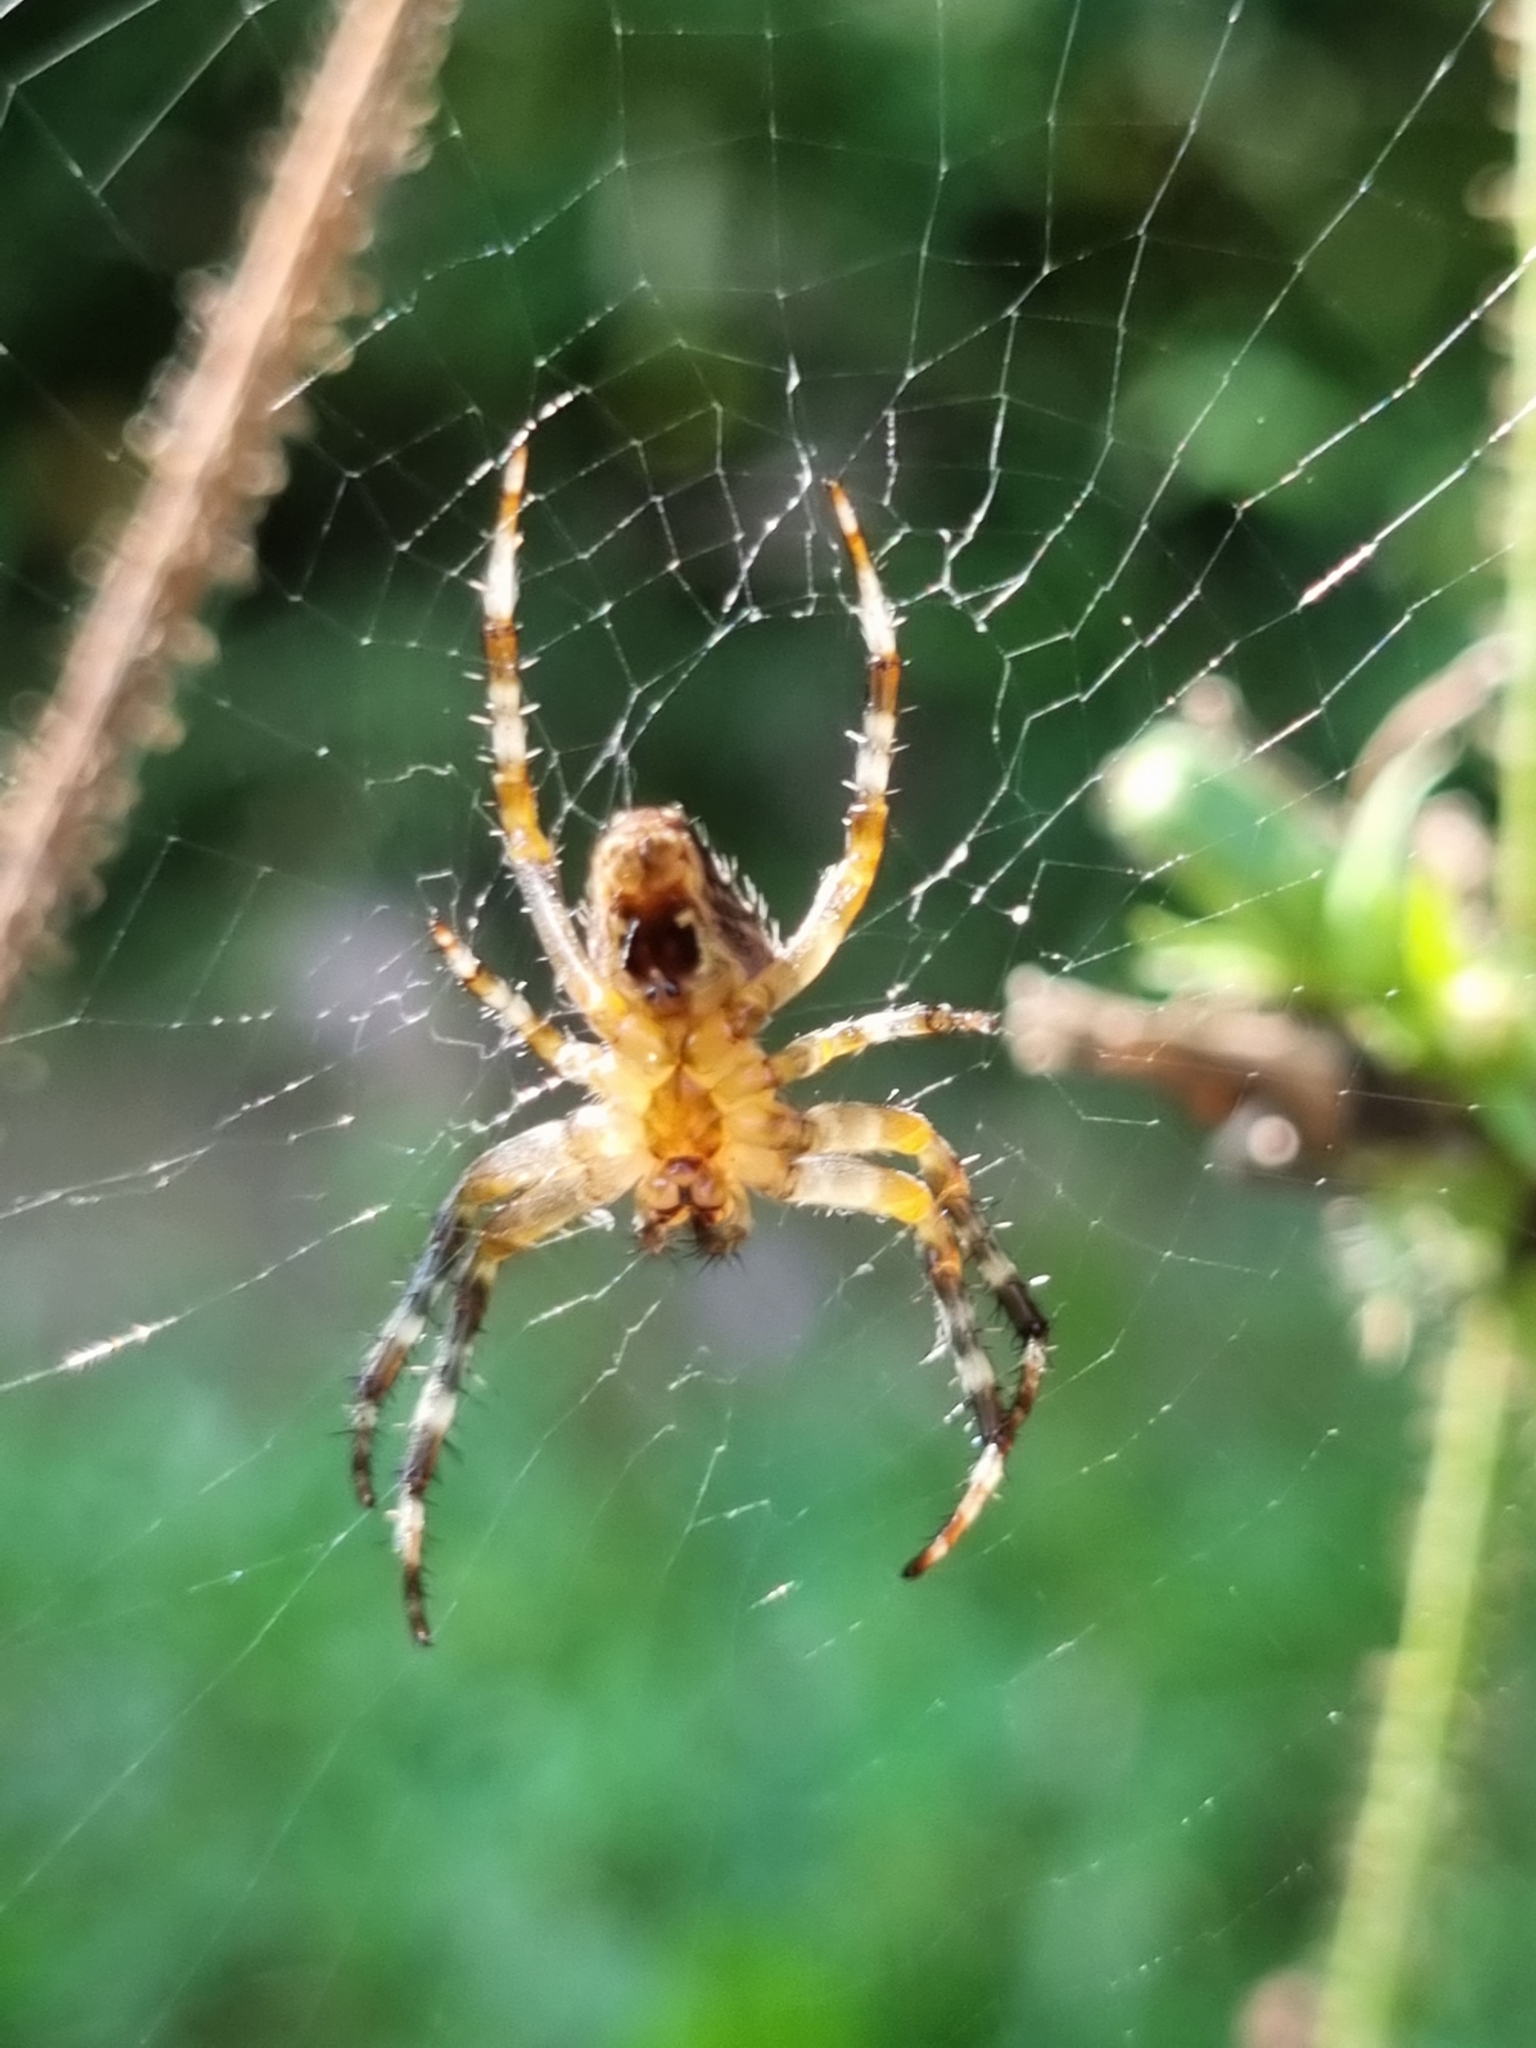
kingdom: Animalia
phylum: Arthropoda
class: Arachnida
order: Araneae
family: Araneidae
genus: Araneus
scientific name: Araneus diadematus
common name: Cross orbweaver
